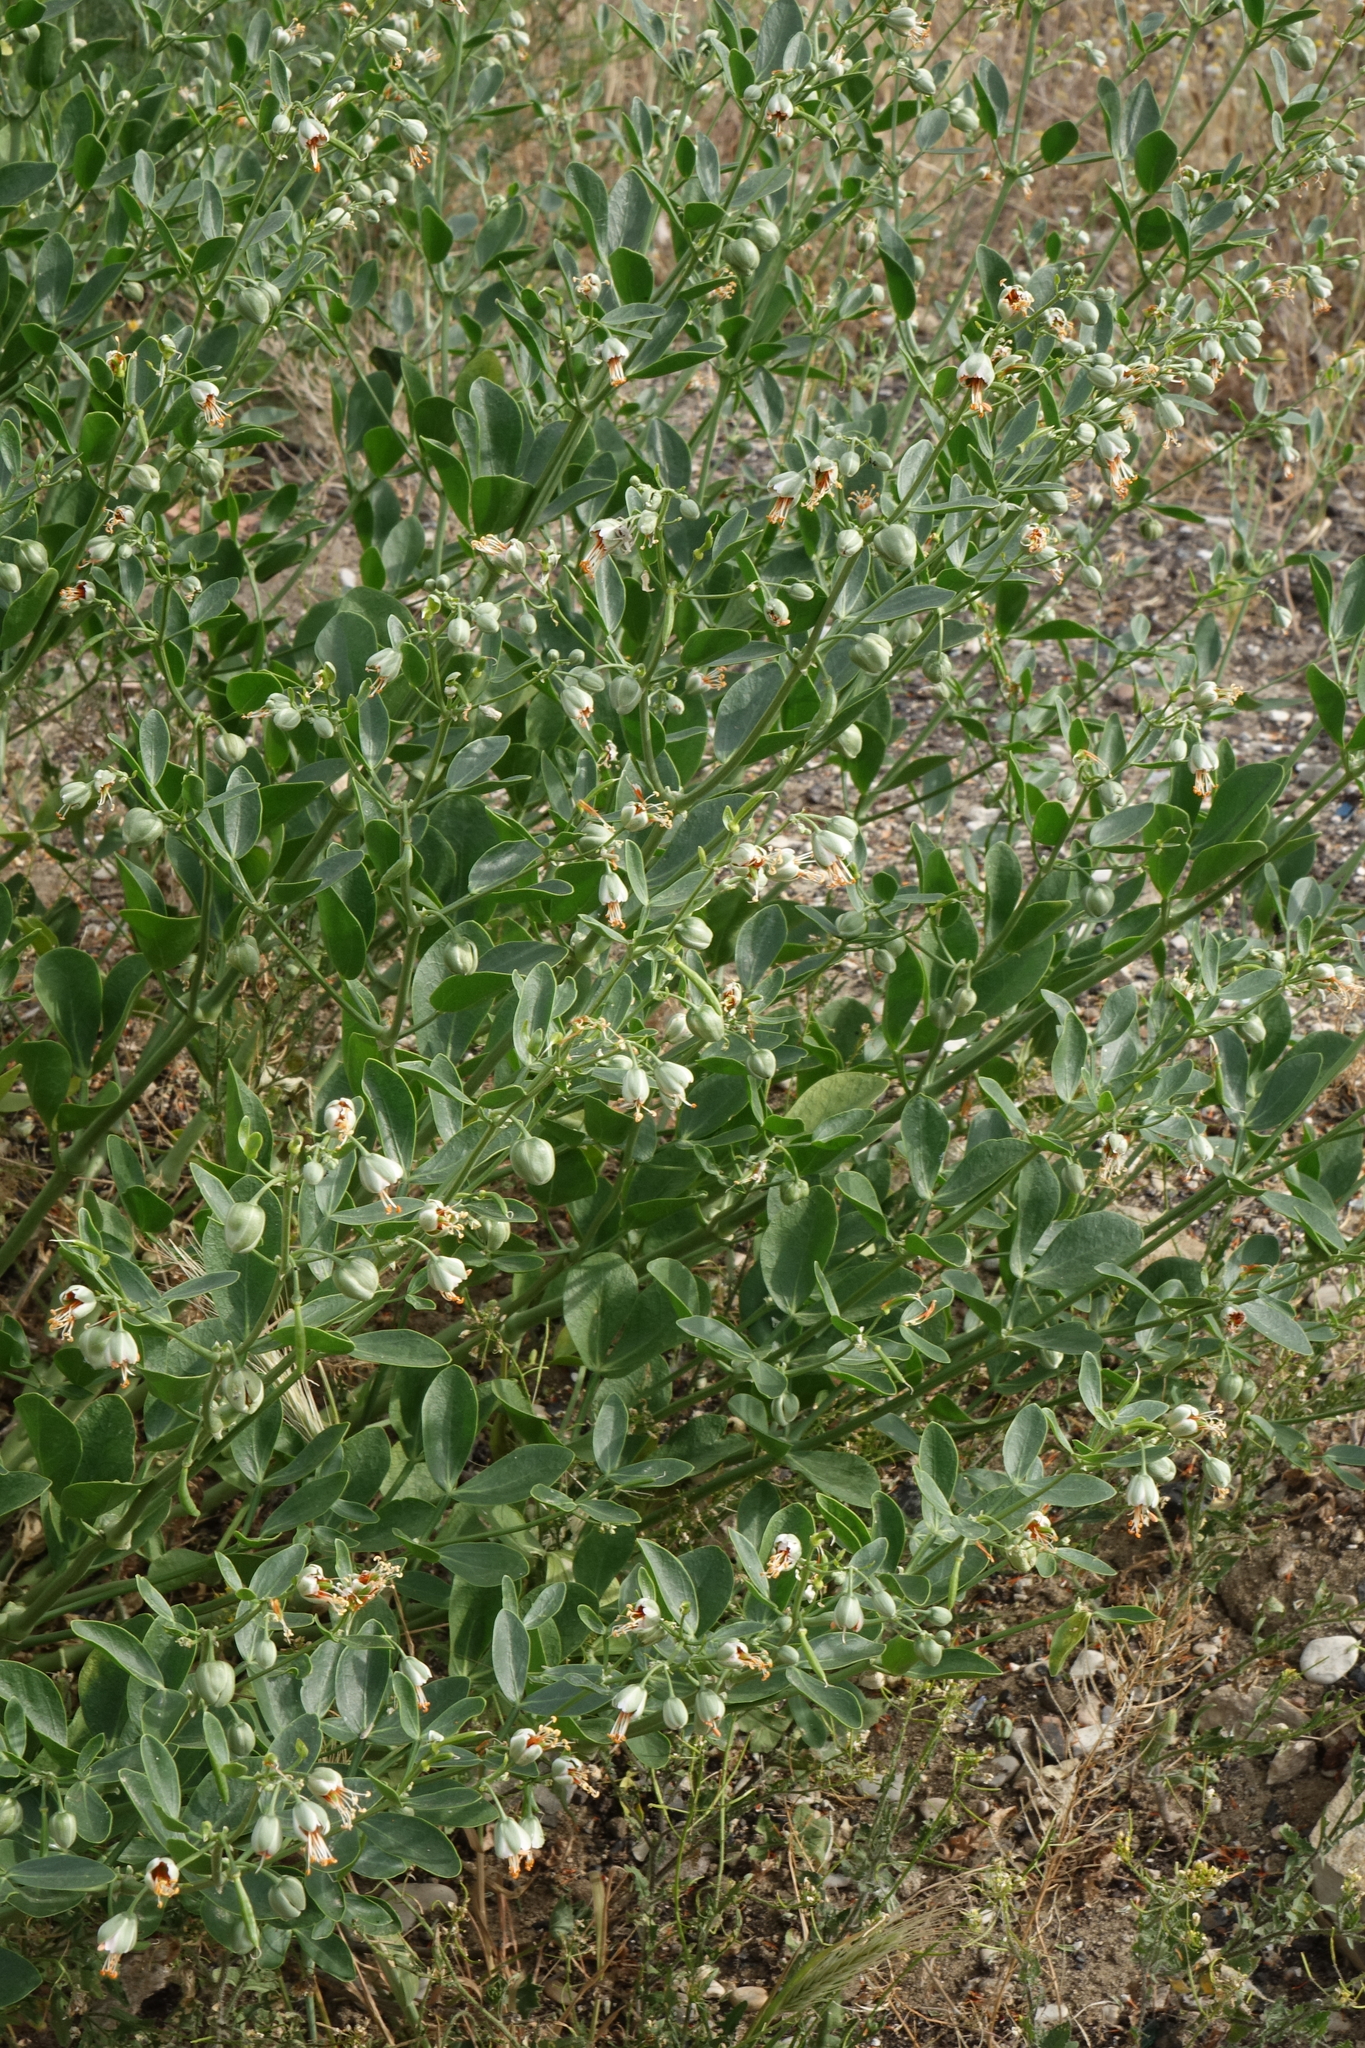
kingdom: Plantae
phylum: Tracheophyta
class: Magnoliopsida
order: Zygophyllales
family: Zygophyllaceae
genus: Zygophyllum
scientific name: Zygophyllum fabago
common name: Syrian beancaper
